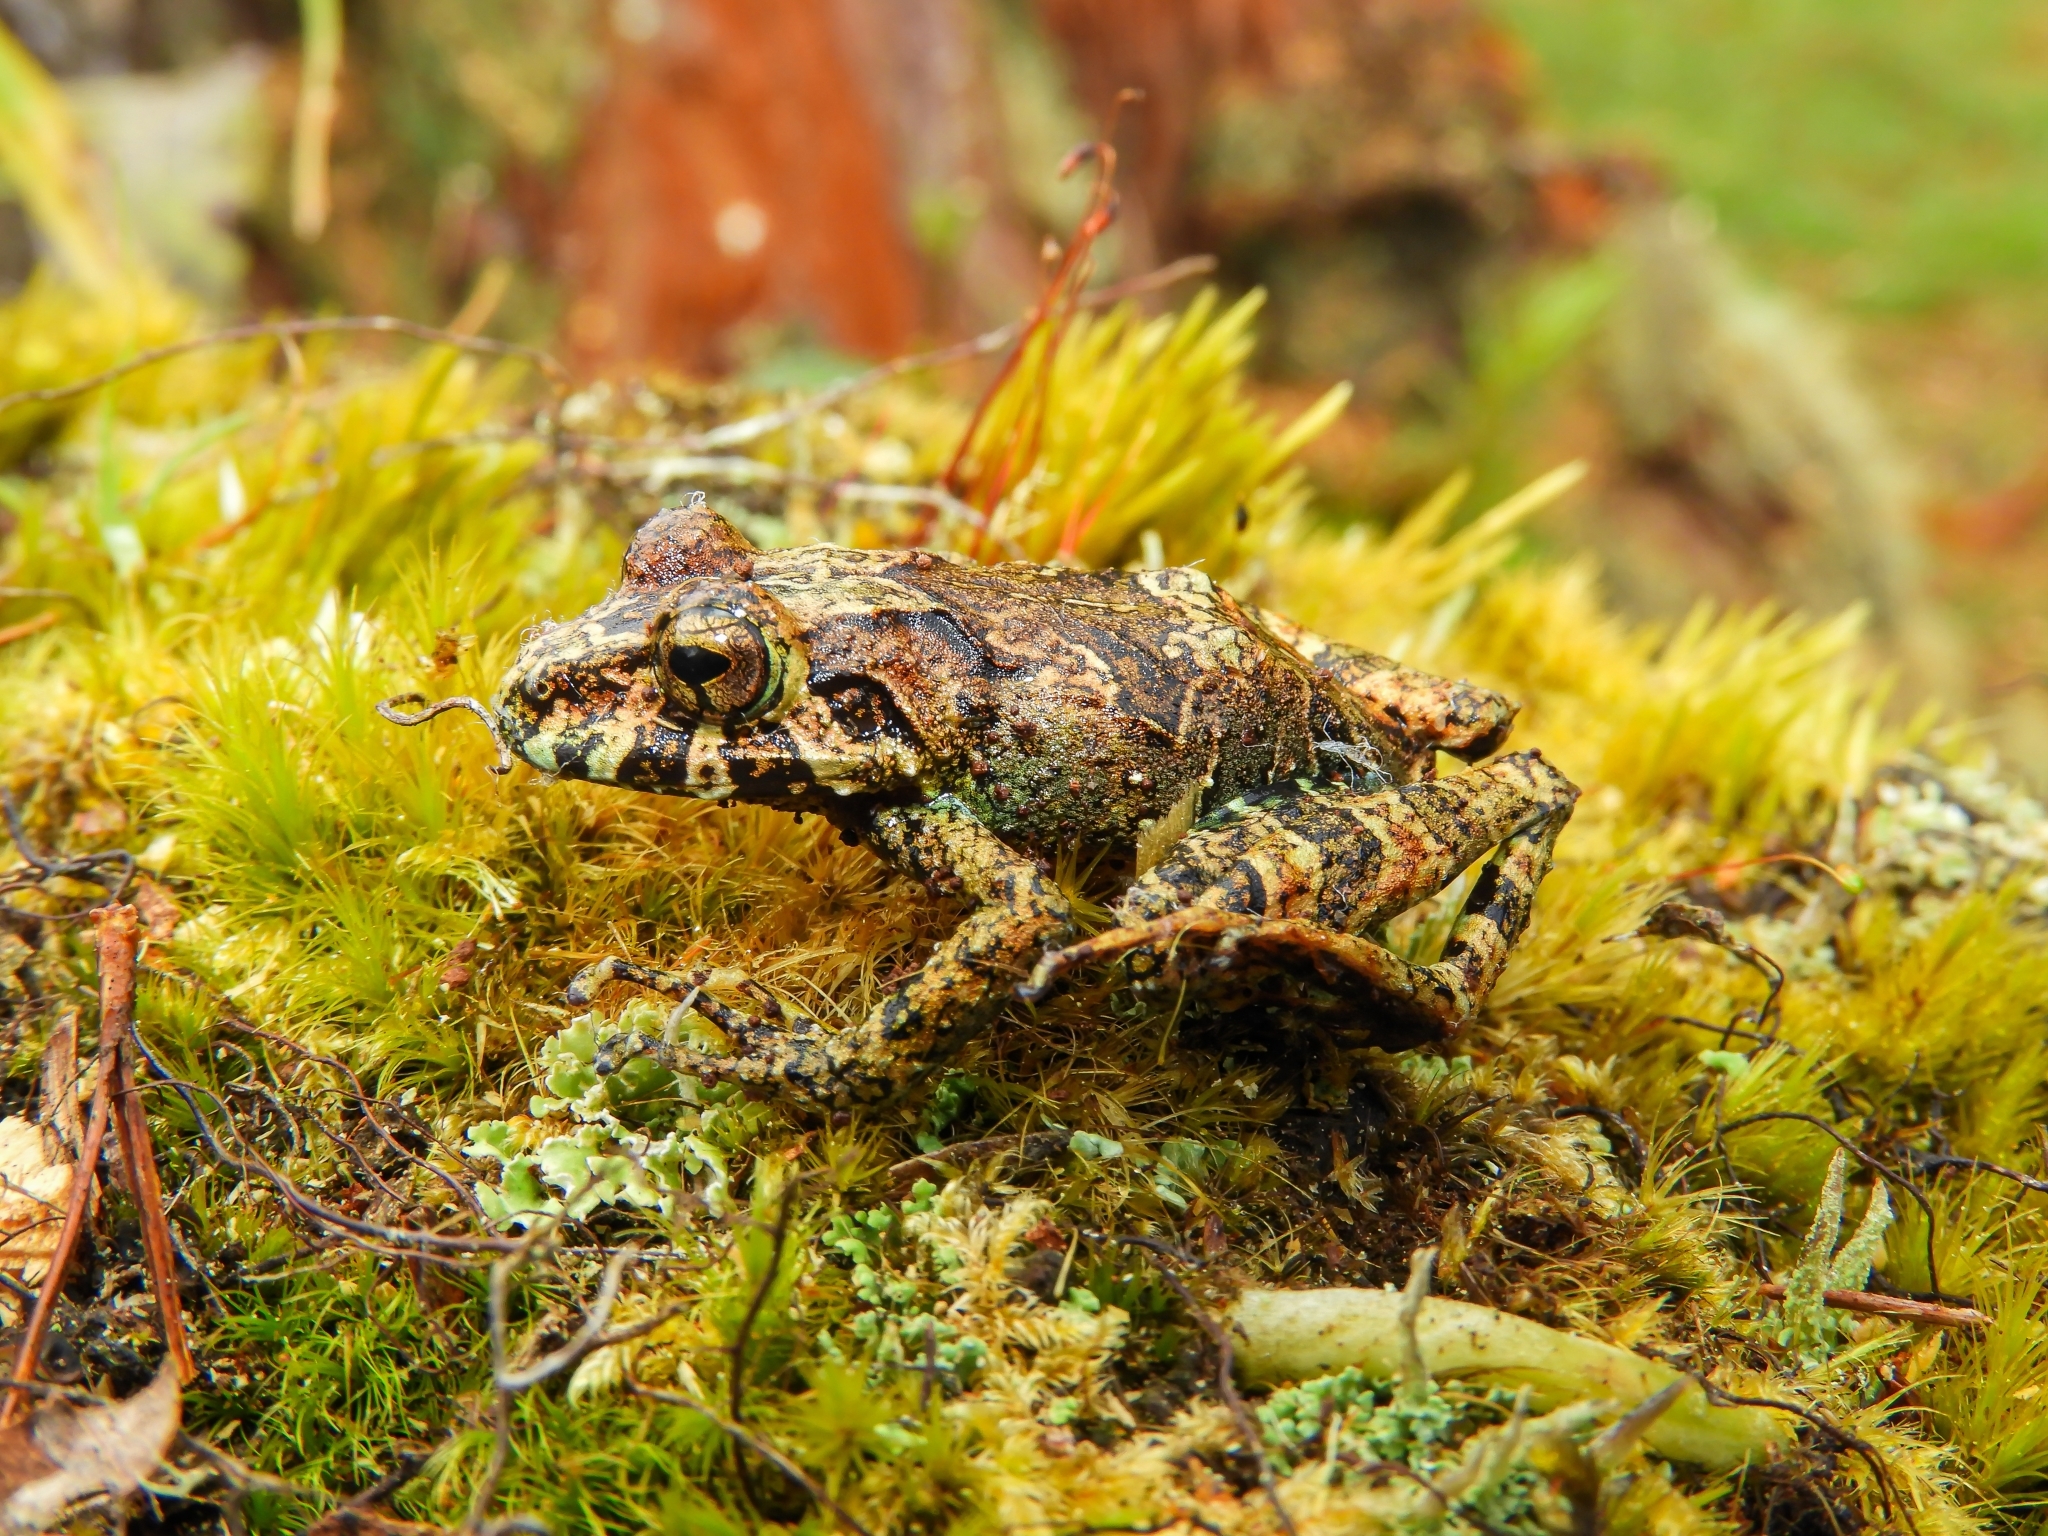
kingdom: Animalia
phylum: Chordata
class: Amphibia
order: Anura
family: Craugastoridae
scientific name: Craugastoridae
